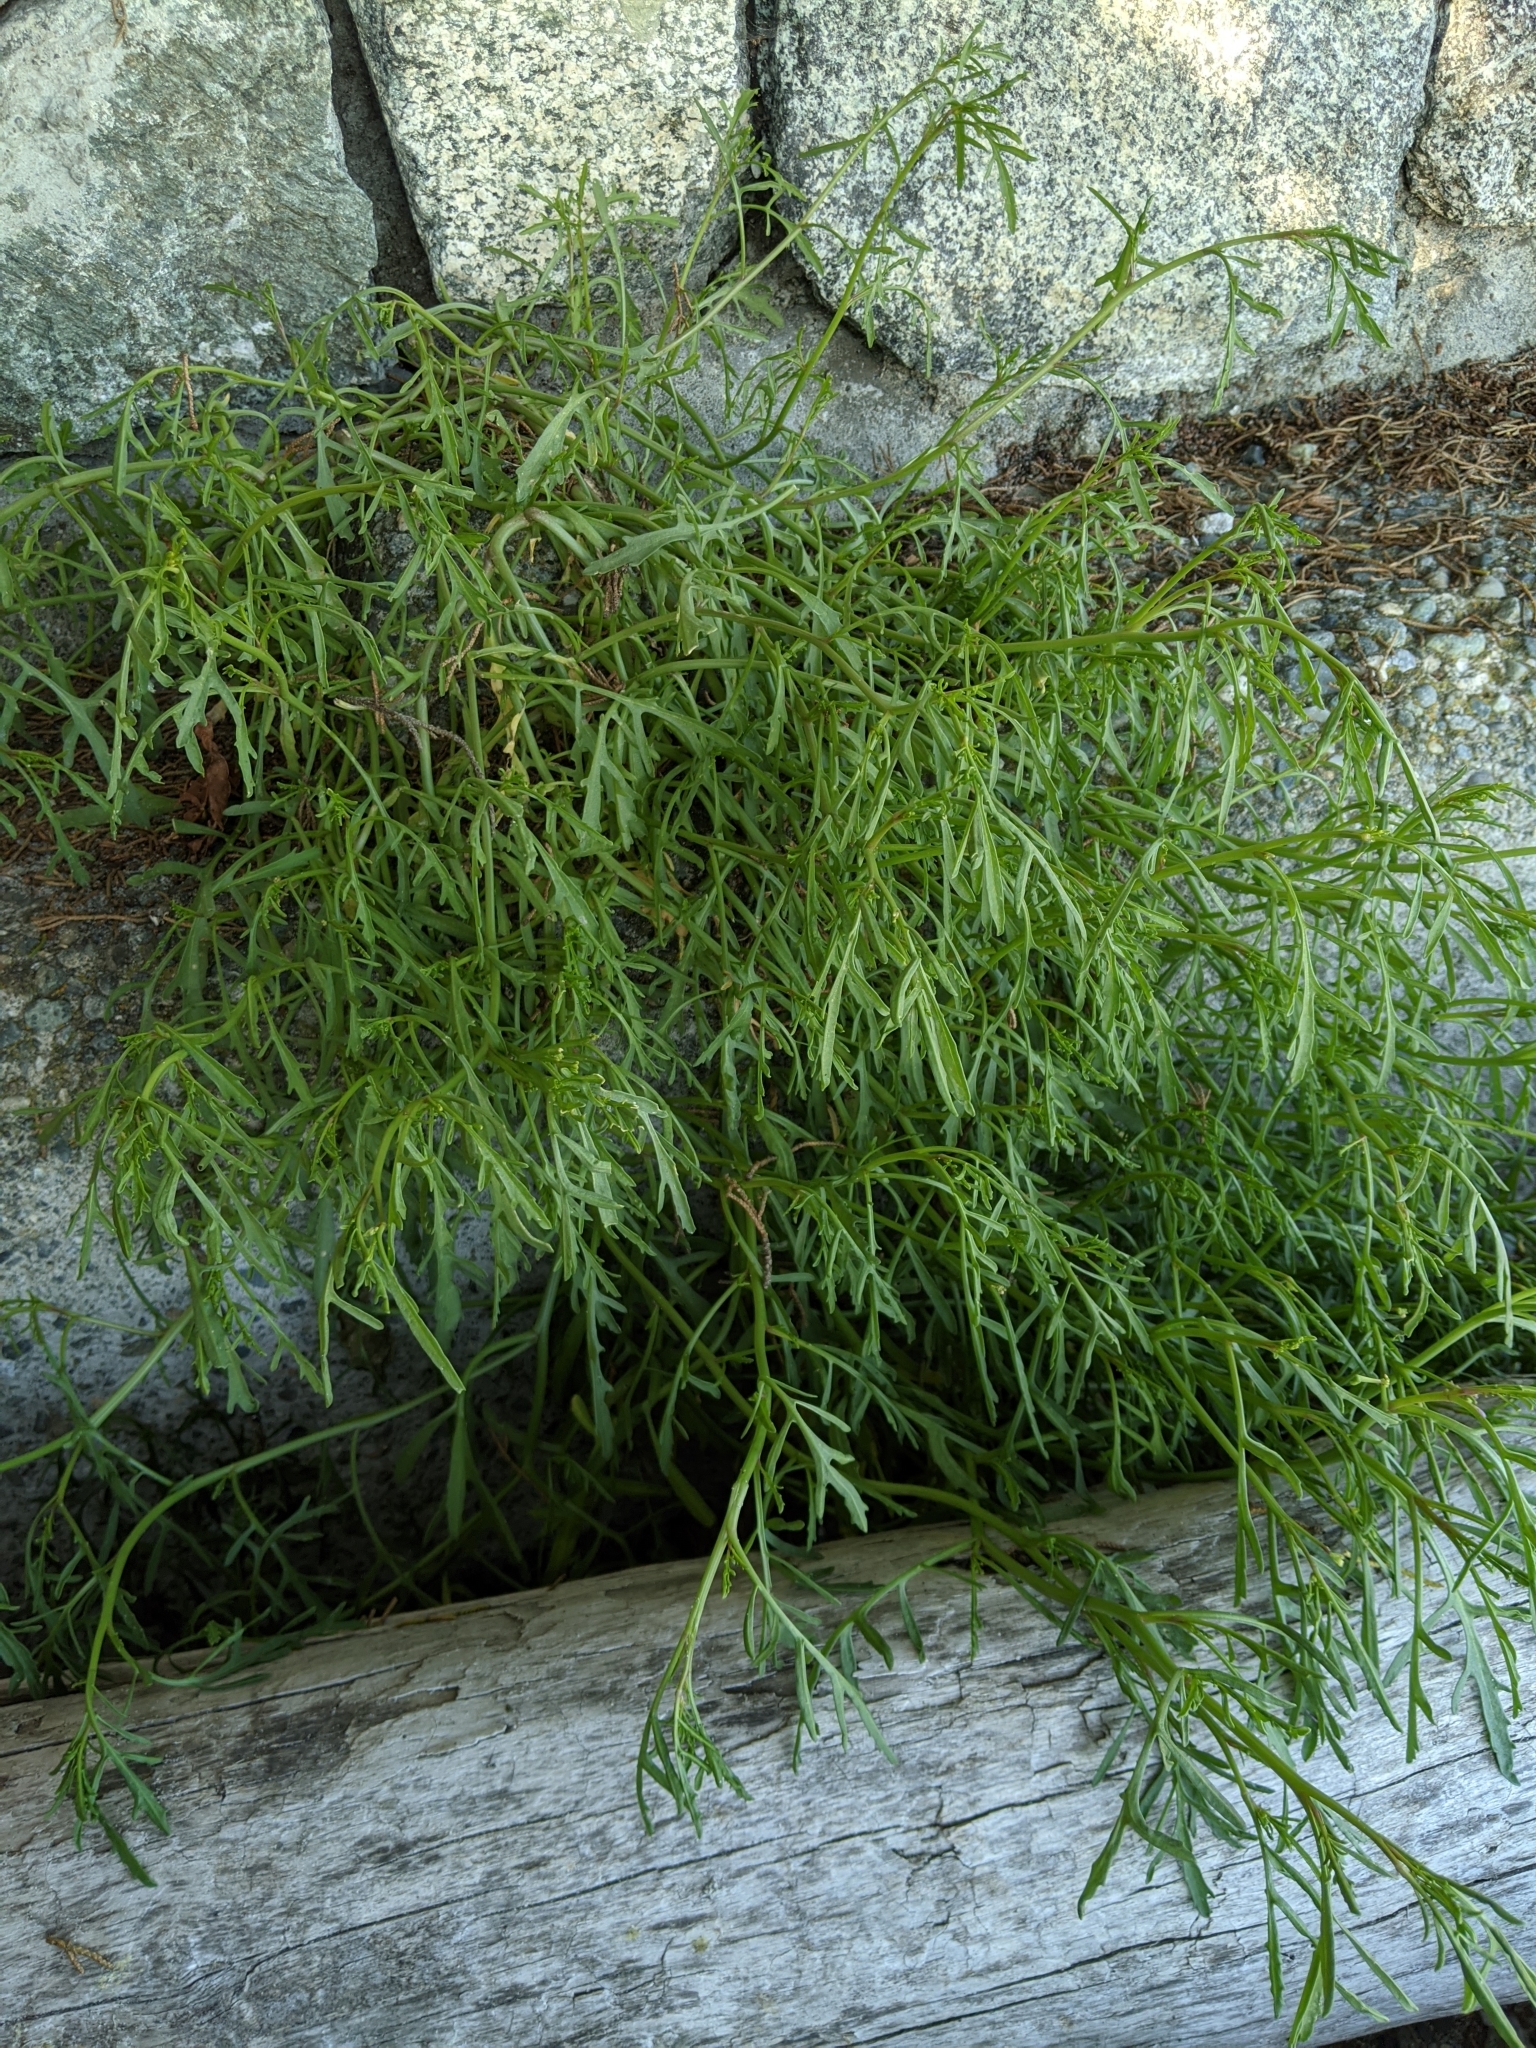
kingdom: Plantae
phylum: Tracheophyta
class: Magnoliopsida
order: Brassicales
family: Brassicaceae
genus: Cakile
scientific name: Cakile maritima
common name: Sea rocket
